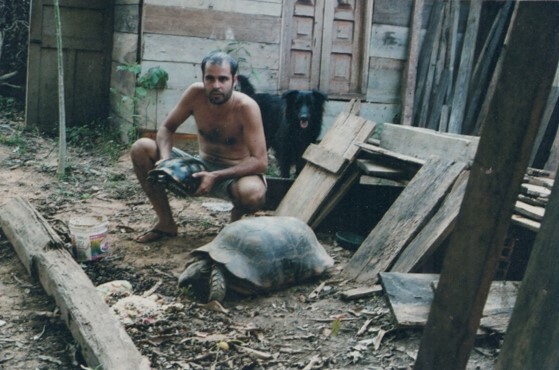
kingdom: Animalia
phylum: Chordata
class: Testudines
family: Testudinidae
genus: Chelonoidis
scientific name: Chelonoidis denticulatus
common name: Yellow-footed tortoise
